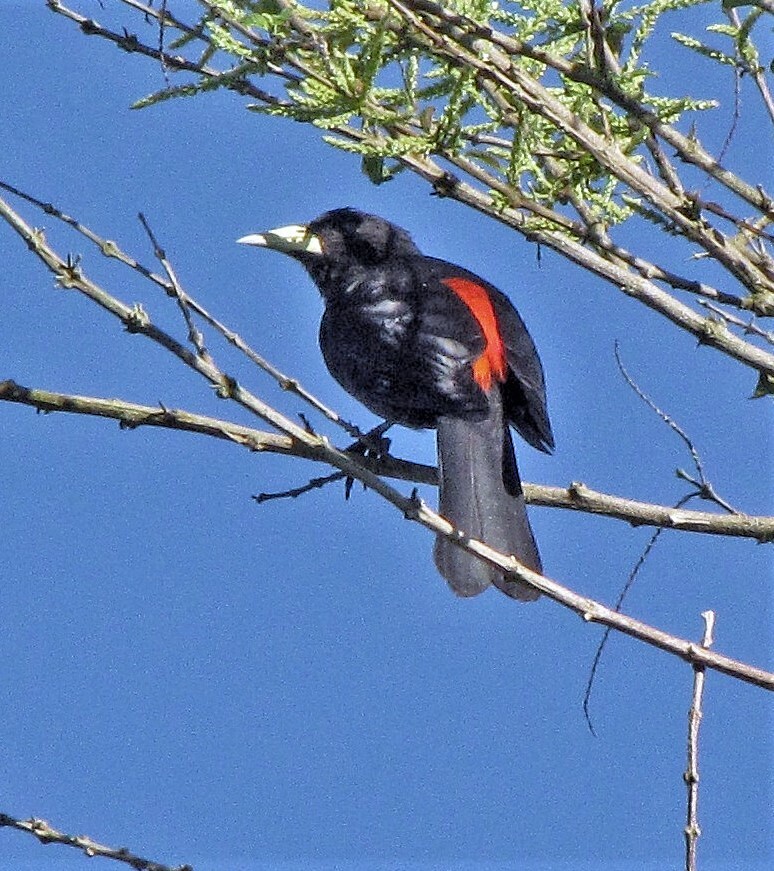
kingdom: Animalia
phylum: Chordata
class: Aves
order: Passeriformes
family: Icteridae
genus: Cacicus
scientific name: Cacicus haemorrhous
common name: Red-rumped cacique
